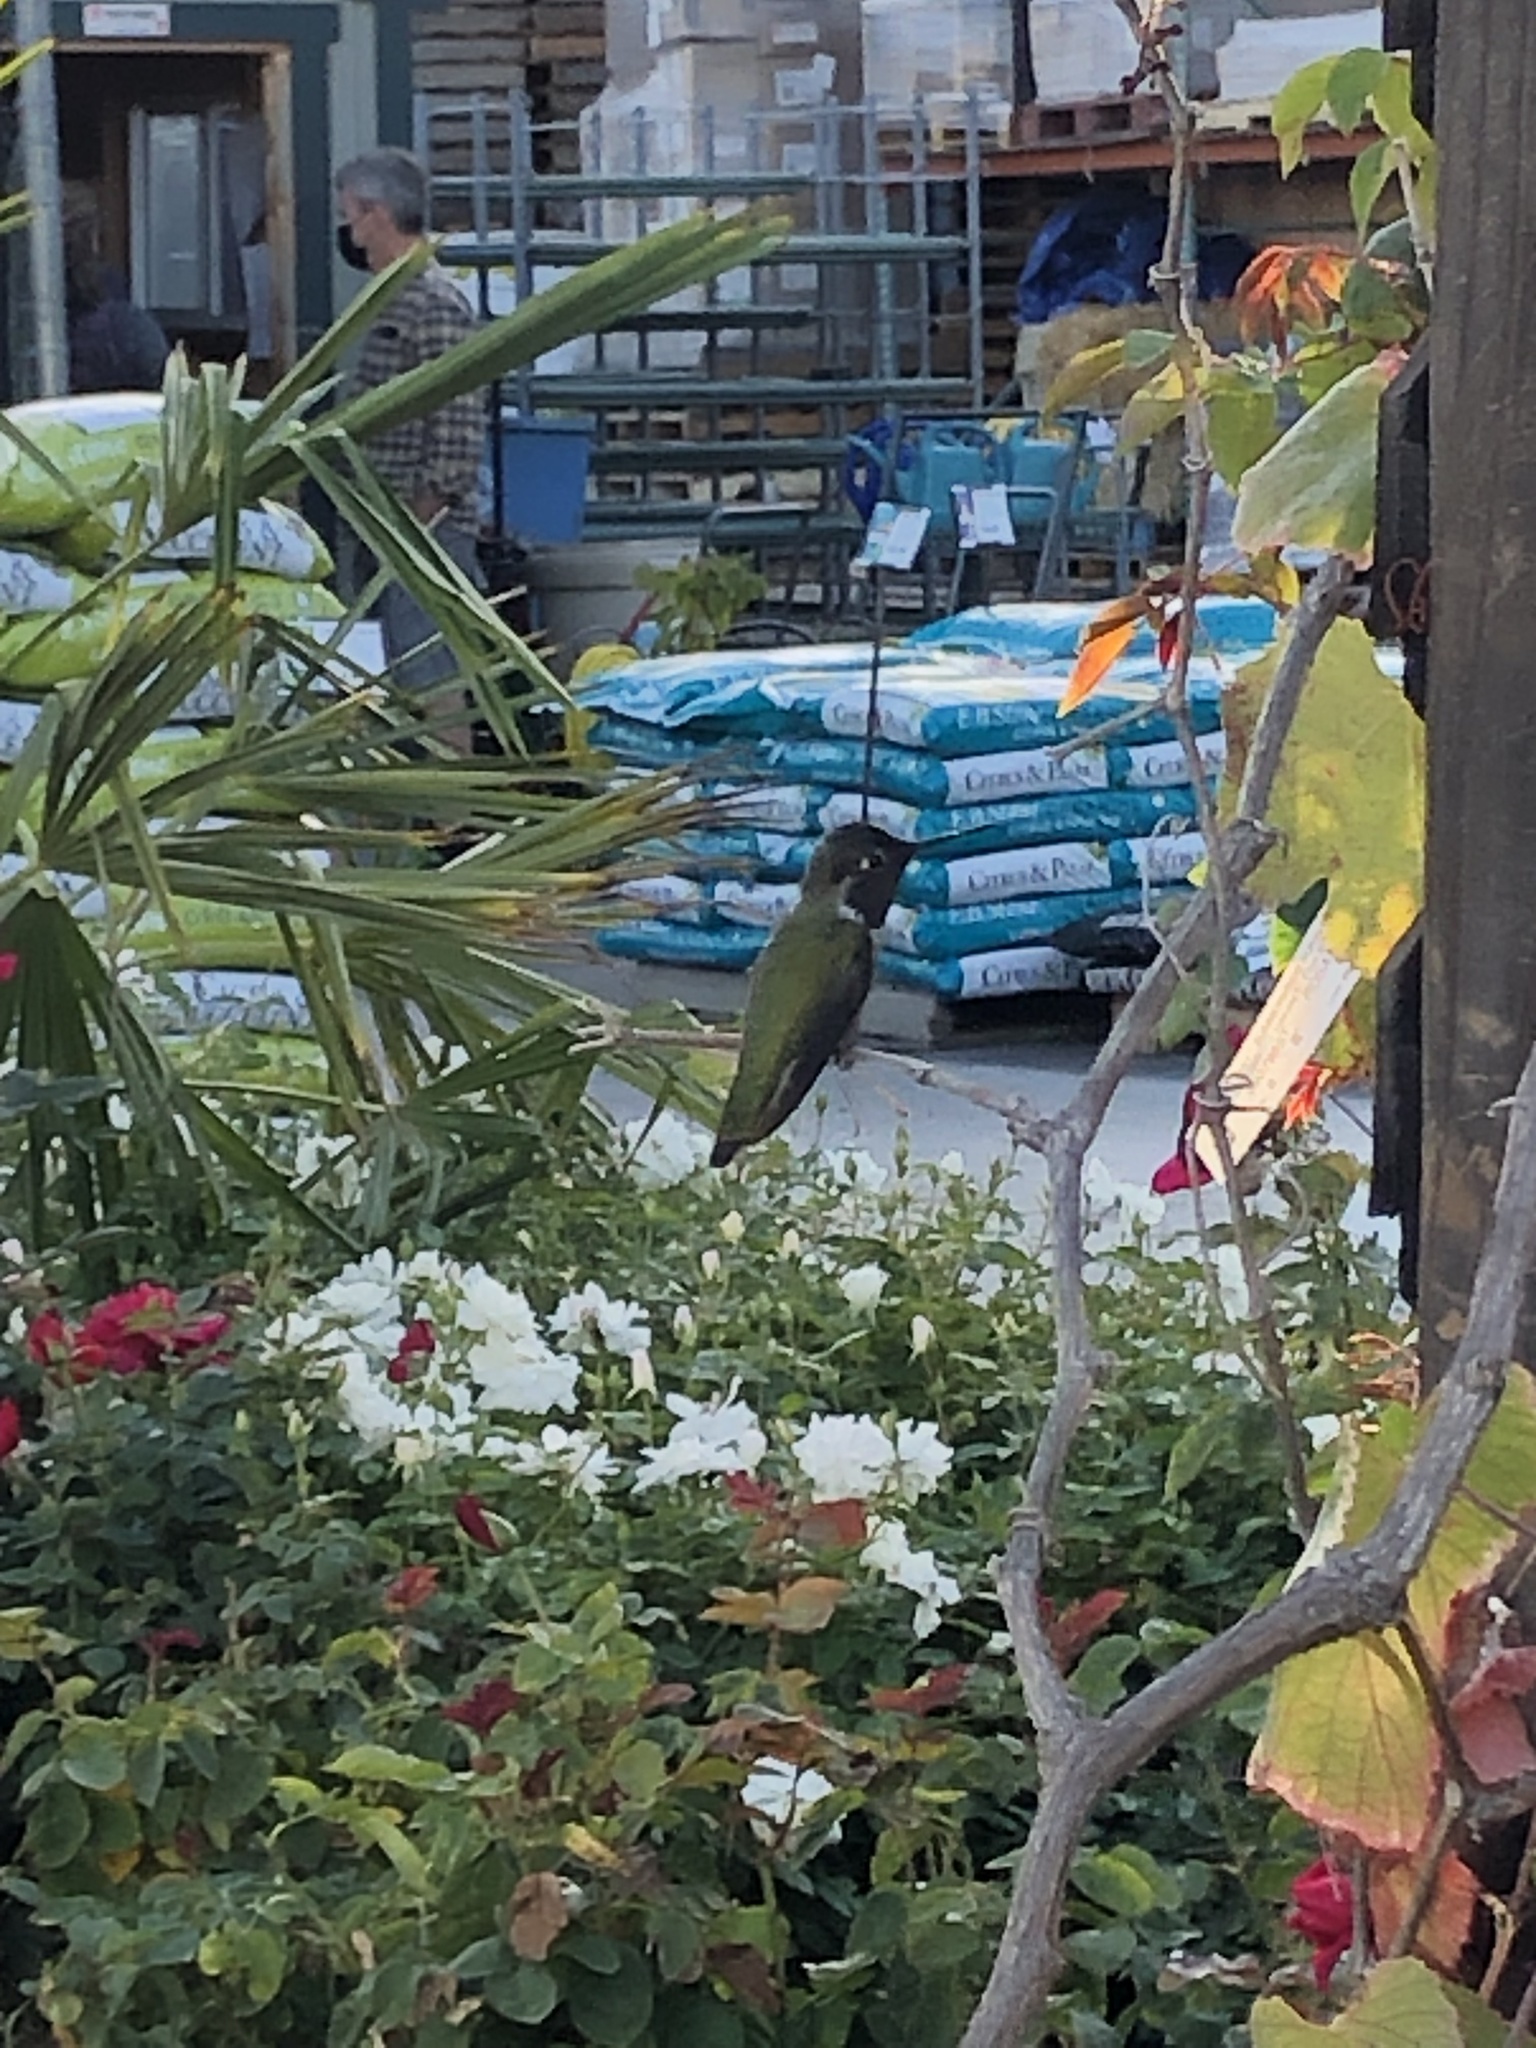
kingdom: Animalia
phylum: Chordata
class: Aves
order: Apodiformes
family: Trochilidae
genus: Calypte
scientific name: Calypte anna
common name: Anna's hummingbird
